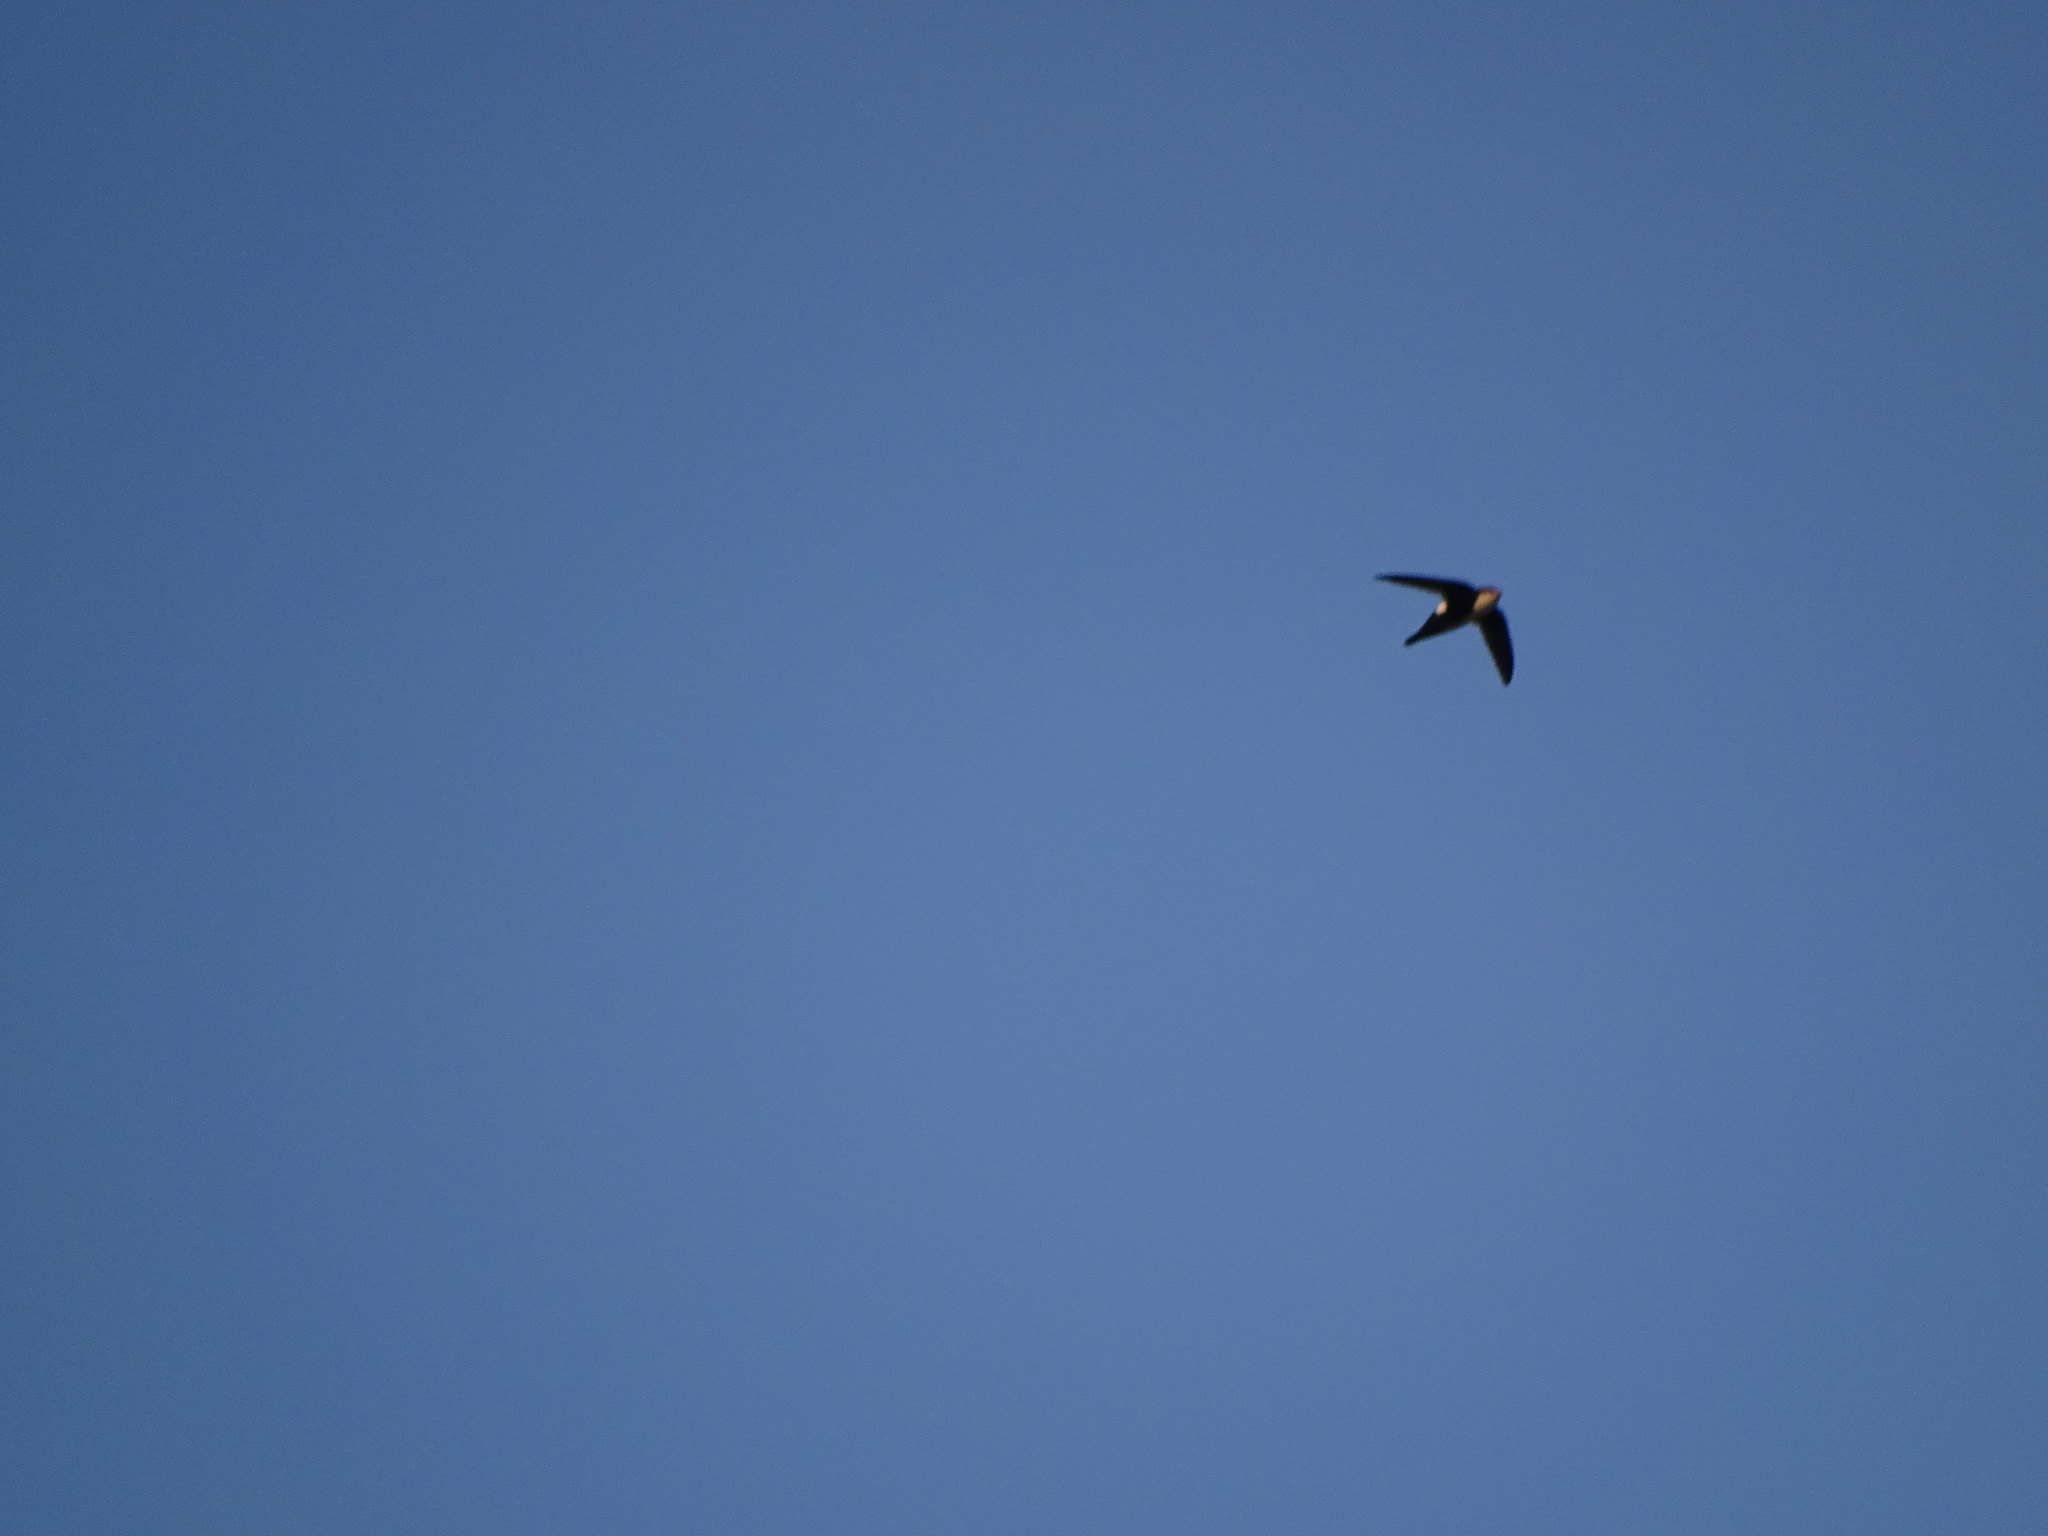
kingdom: Animalia
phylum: Chordata
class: Aves
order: Apodiformes
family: Apodidae
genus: Aeronautes
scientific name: Aeronautes saxatalis
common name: White-throated swift
